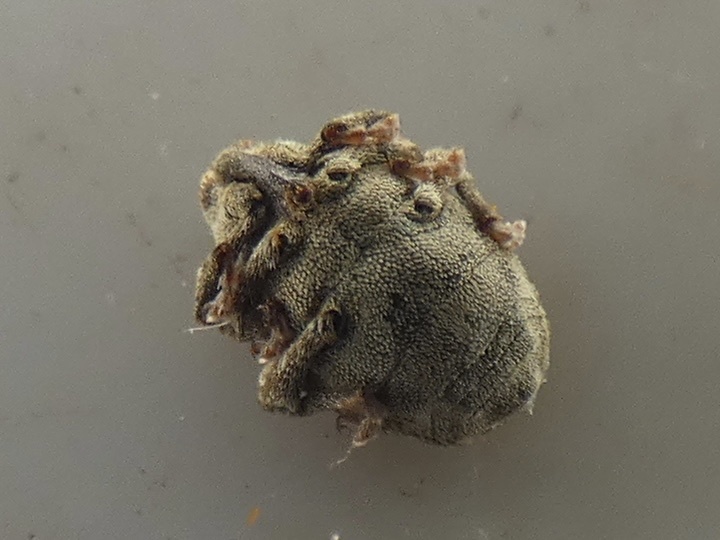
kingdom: Animalia
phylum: Arthropoda
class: Insecta
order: Coleoptera
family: Curculionidae
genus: Parethelcus
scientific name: Parethelcus pollinarius
